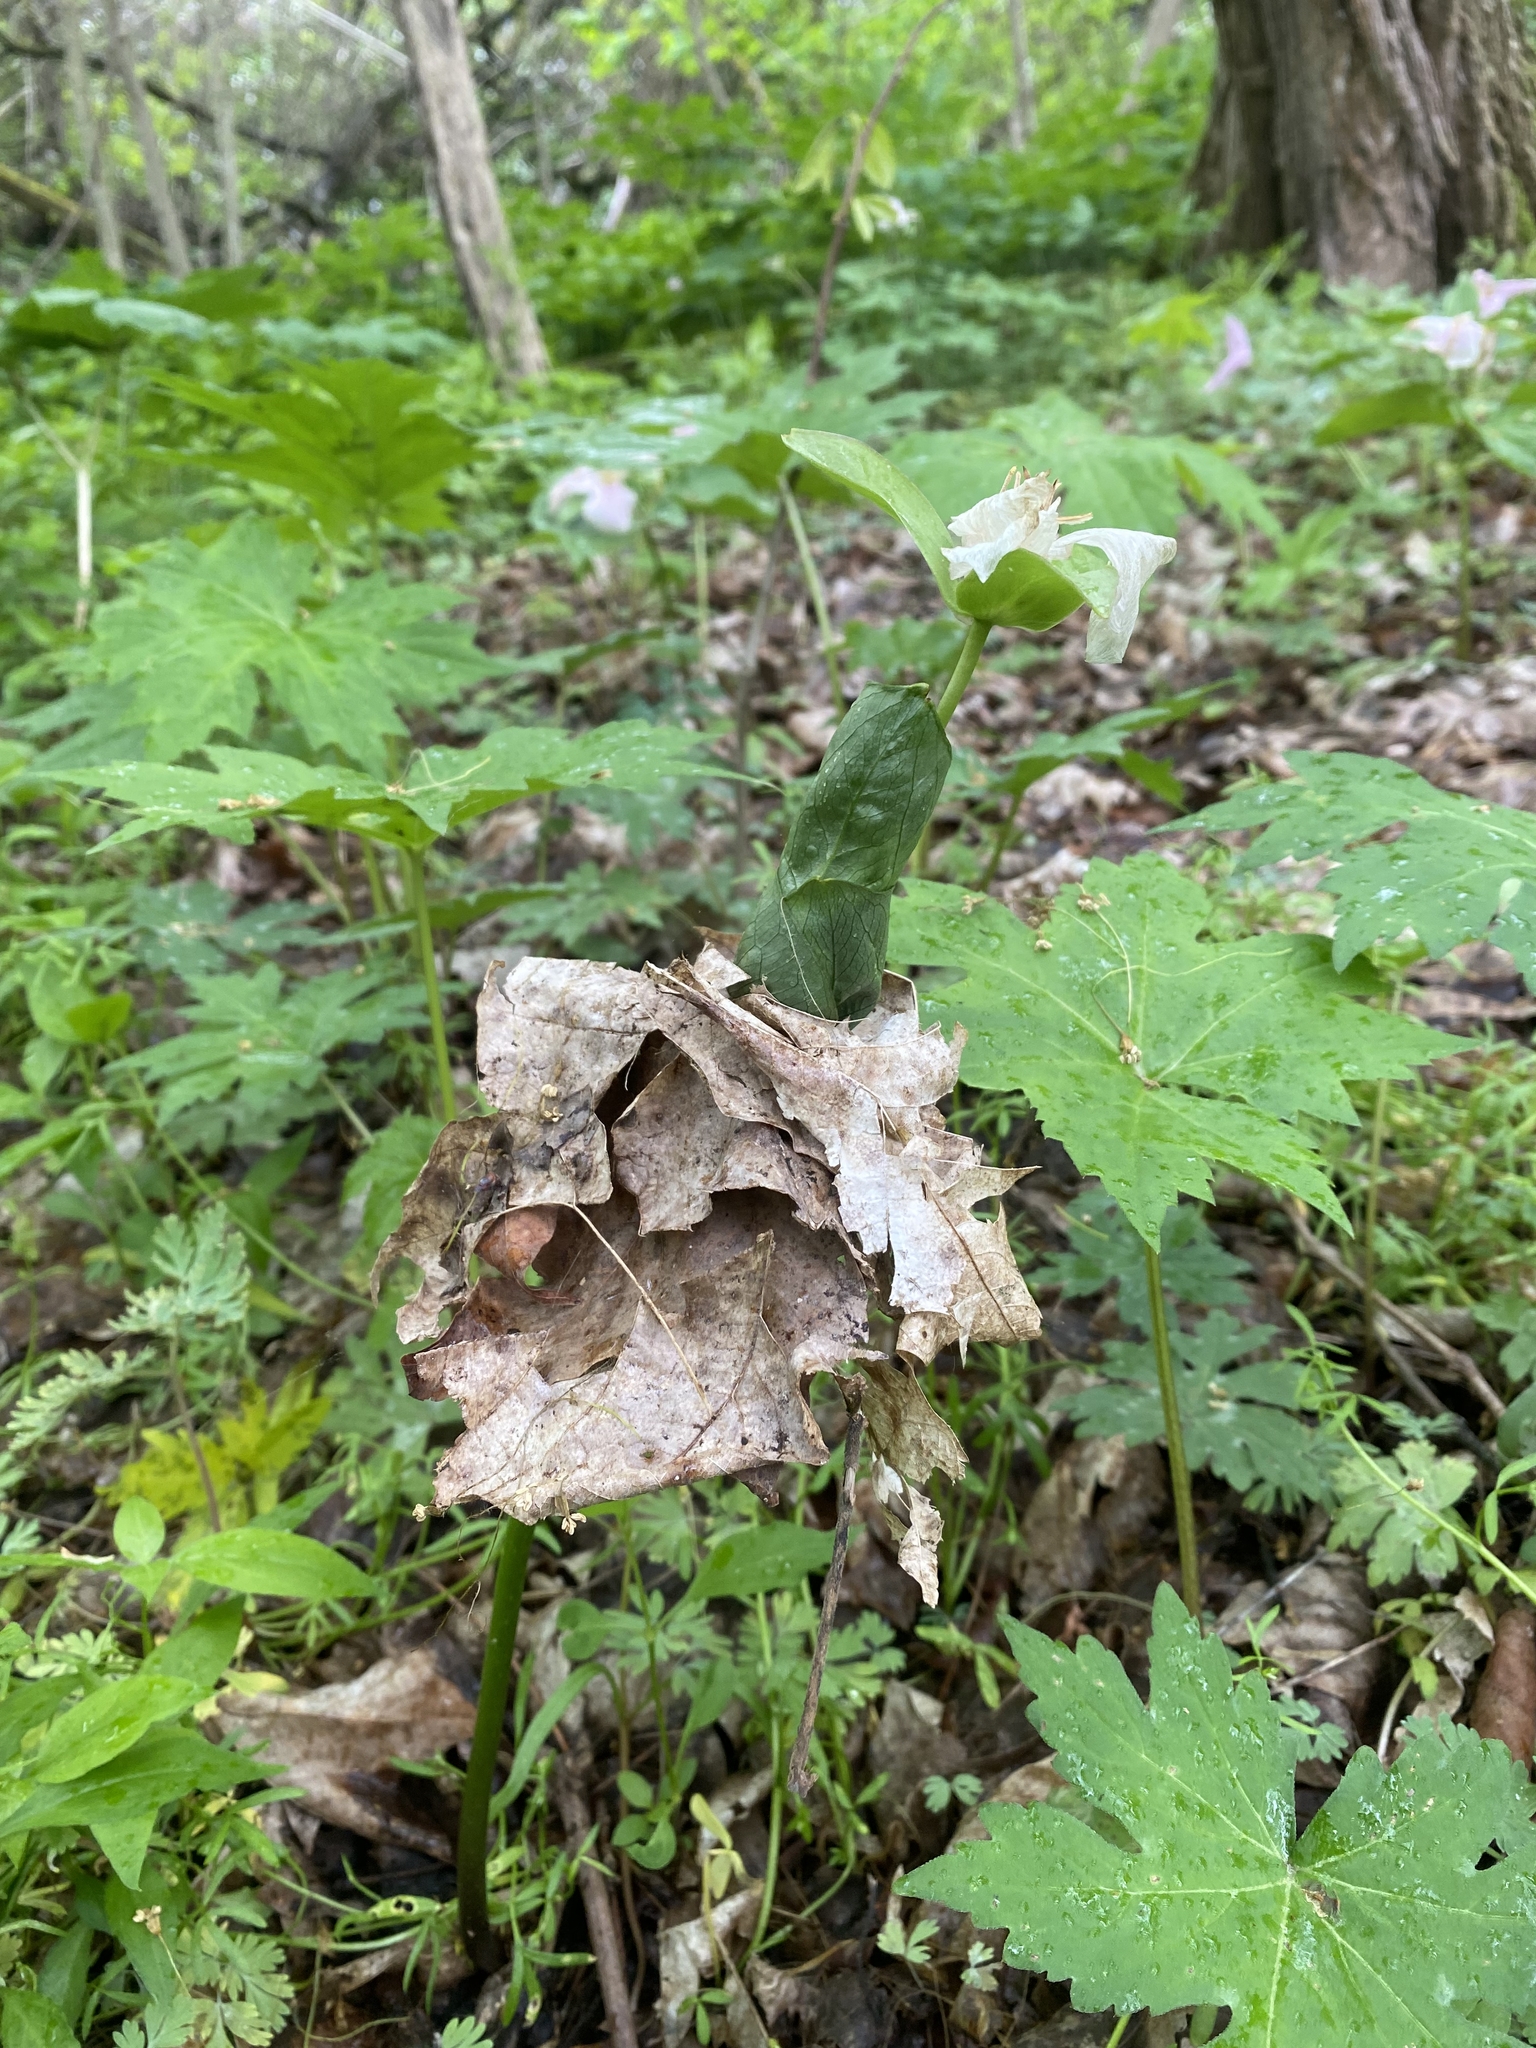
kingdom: Plantae
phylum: Tracheophyta
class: Liliopsida
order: Liliales
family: Melanthiaceae
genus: Trillium
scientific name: Trillium grandiflorum
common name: Great white trillium
